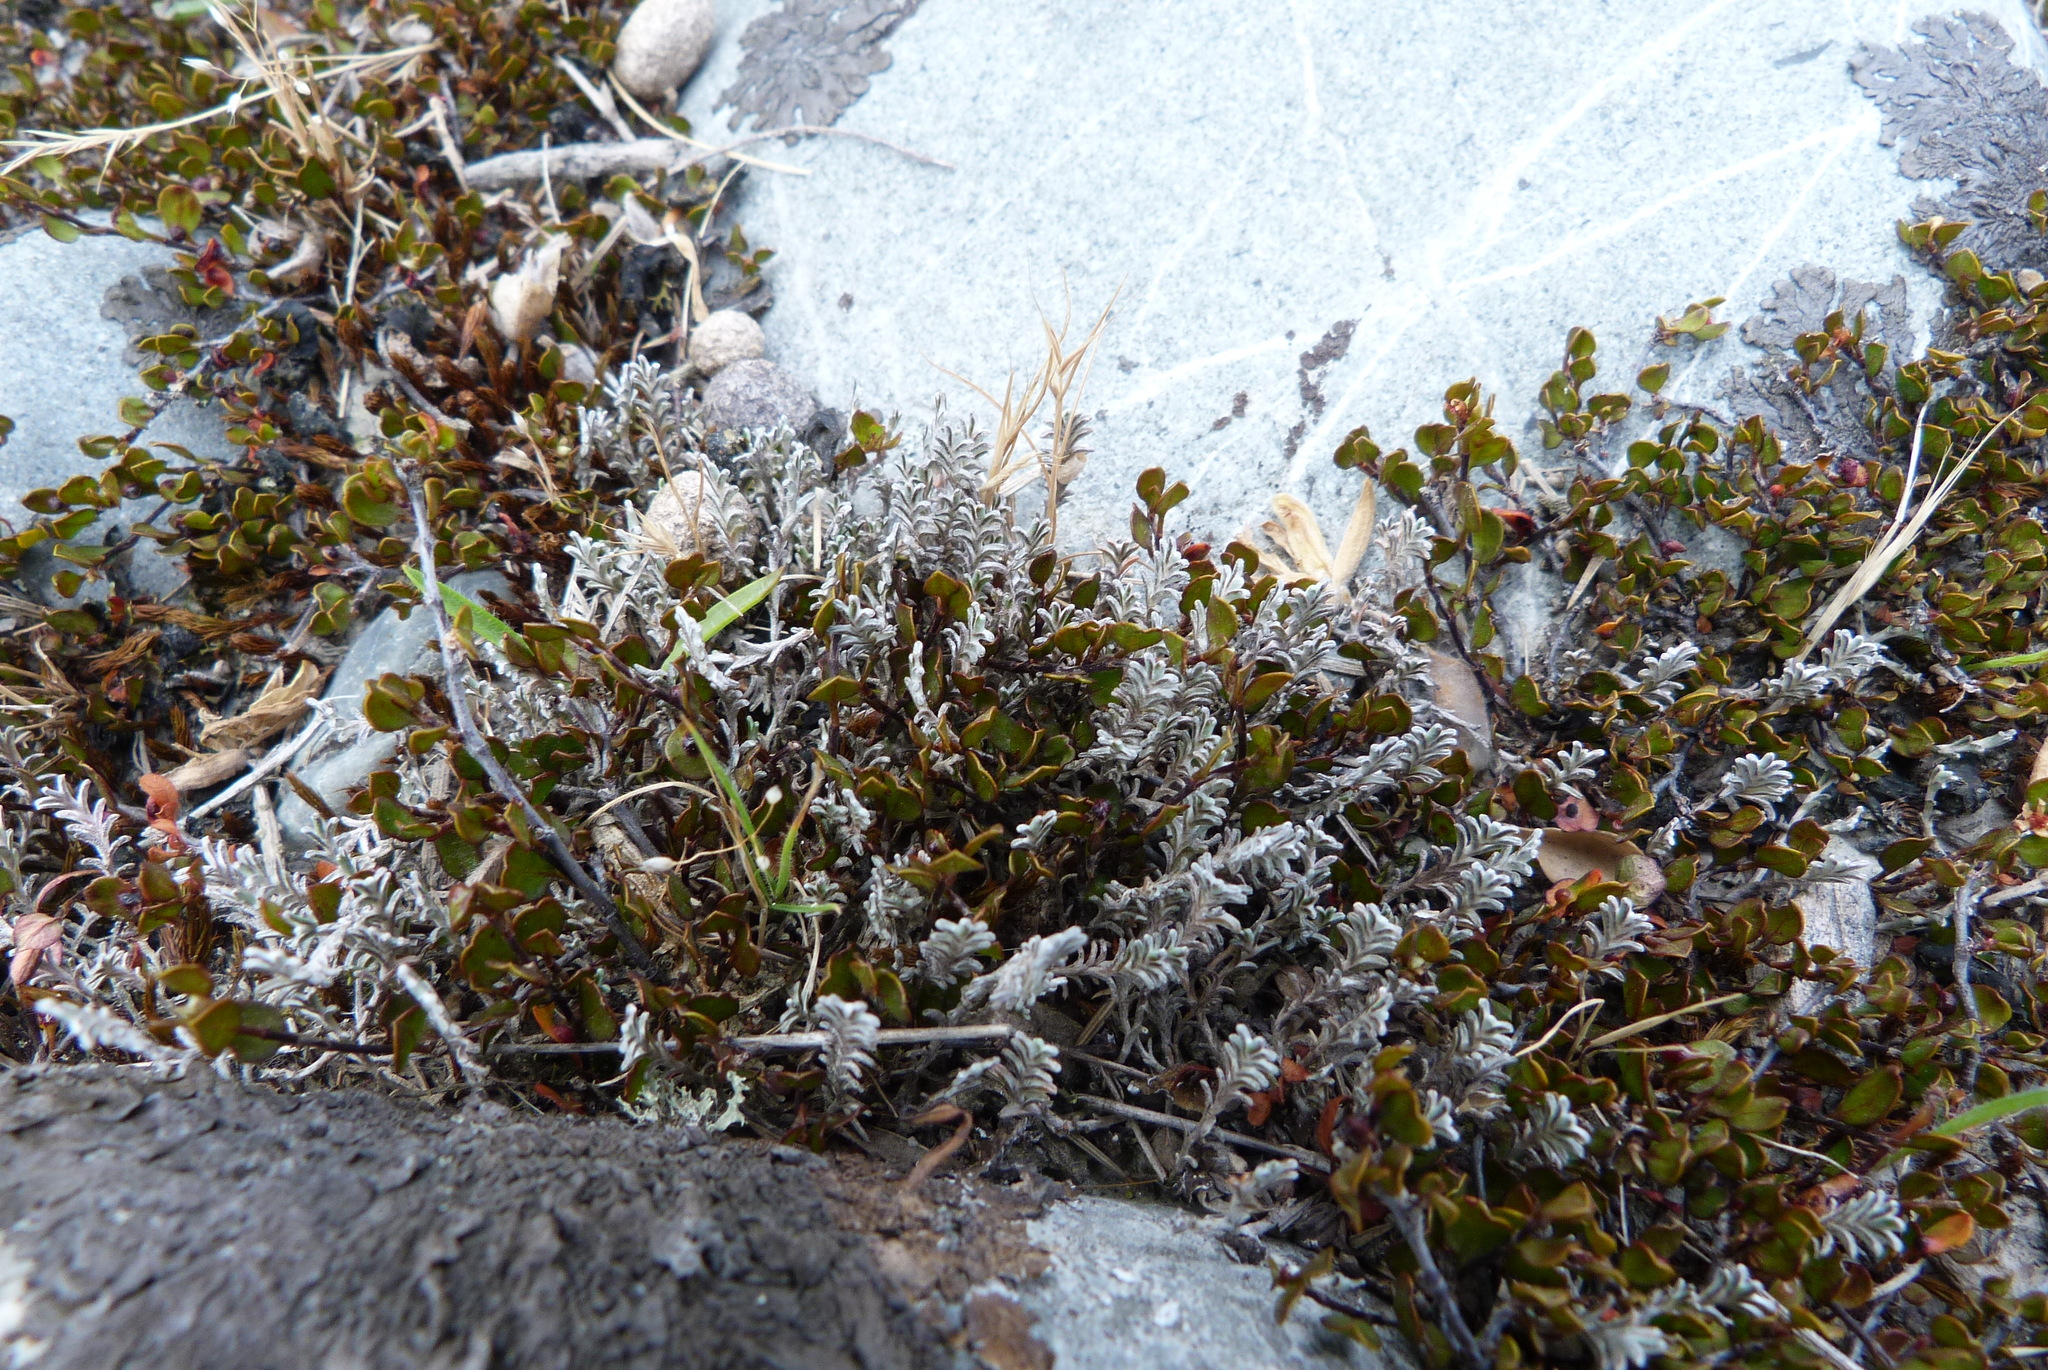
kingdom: Plantae
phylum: Tracheophyta
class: Magnoliopsida
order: Asterales
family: Asteraceae
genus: Raoulia
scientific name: Raoulia monroi
